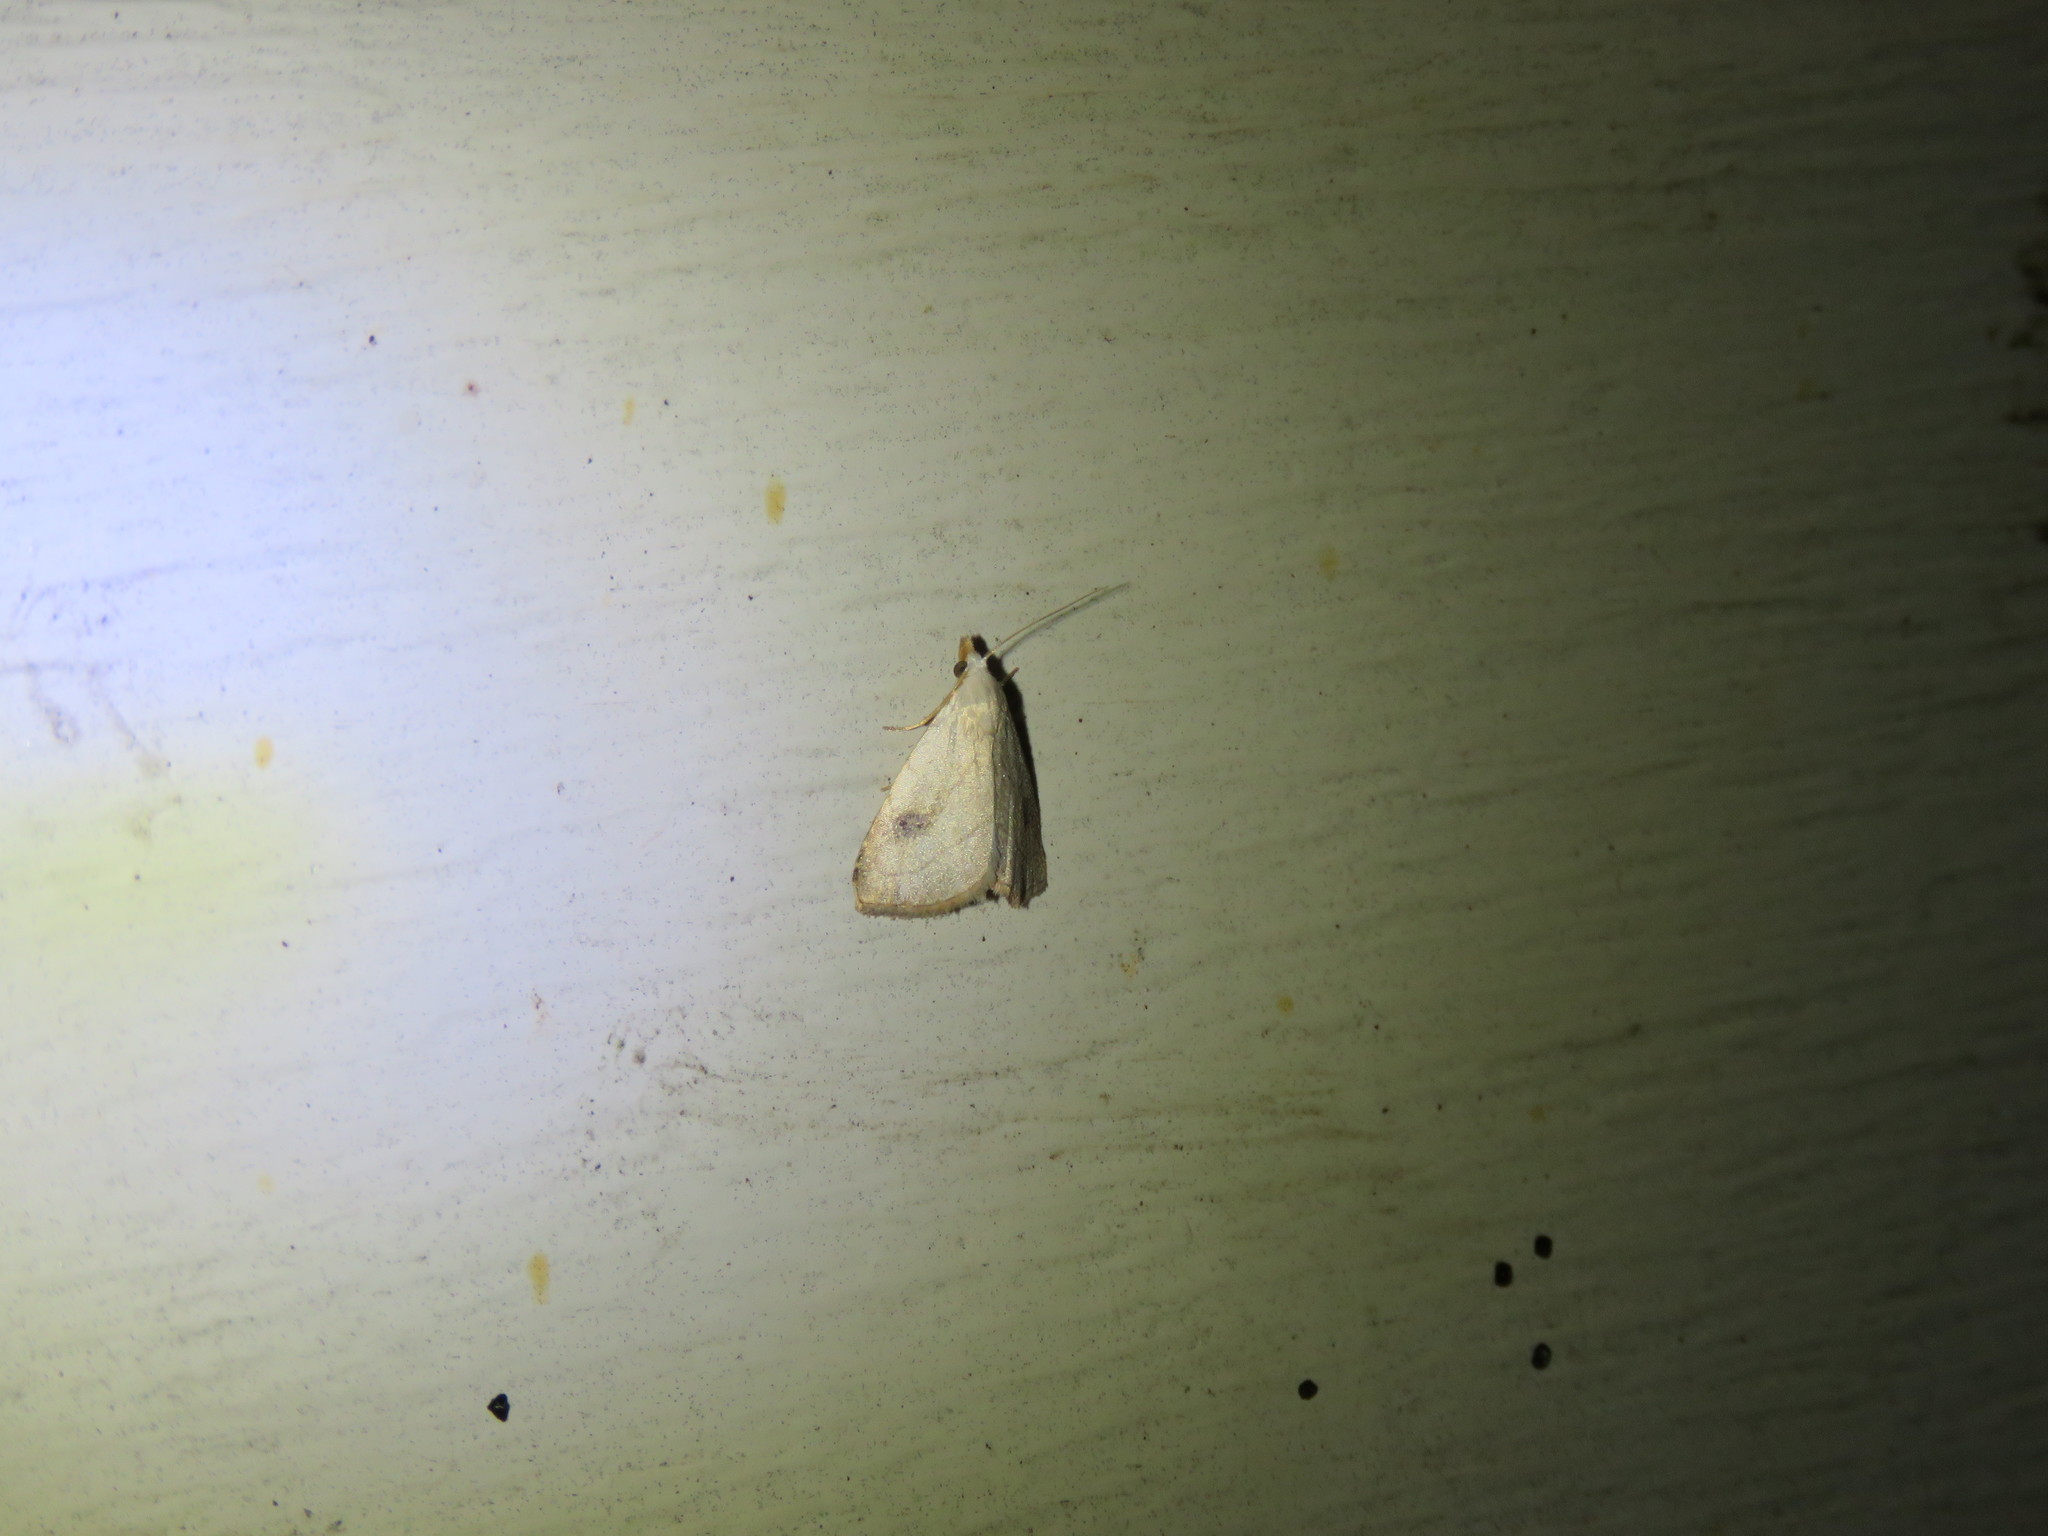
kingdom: Animalia
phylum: Arthropoda
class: Insecta
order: Lepidoptera
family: Erebidae
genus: Rivula
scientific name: Rivula propinqualis
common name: Spotted grass moth
